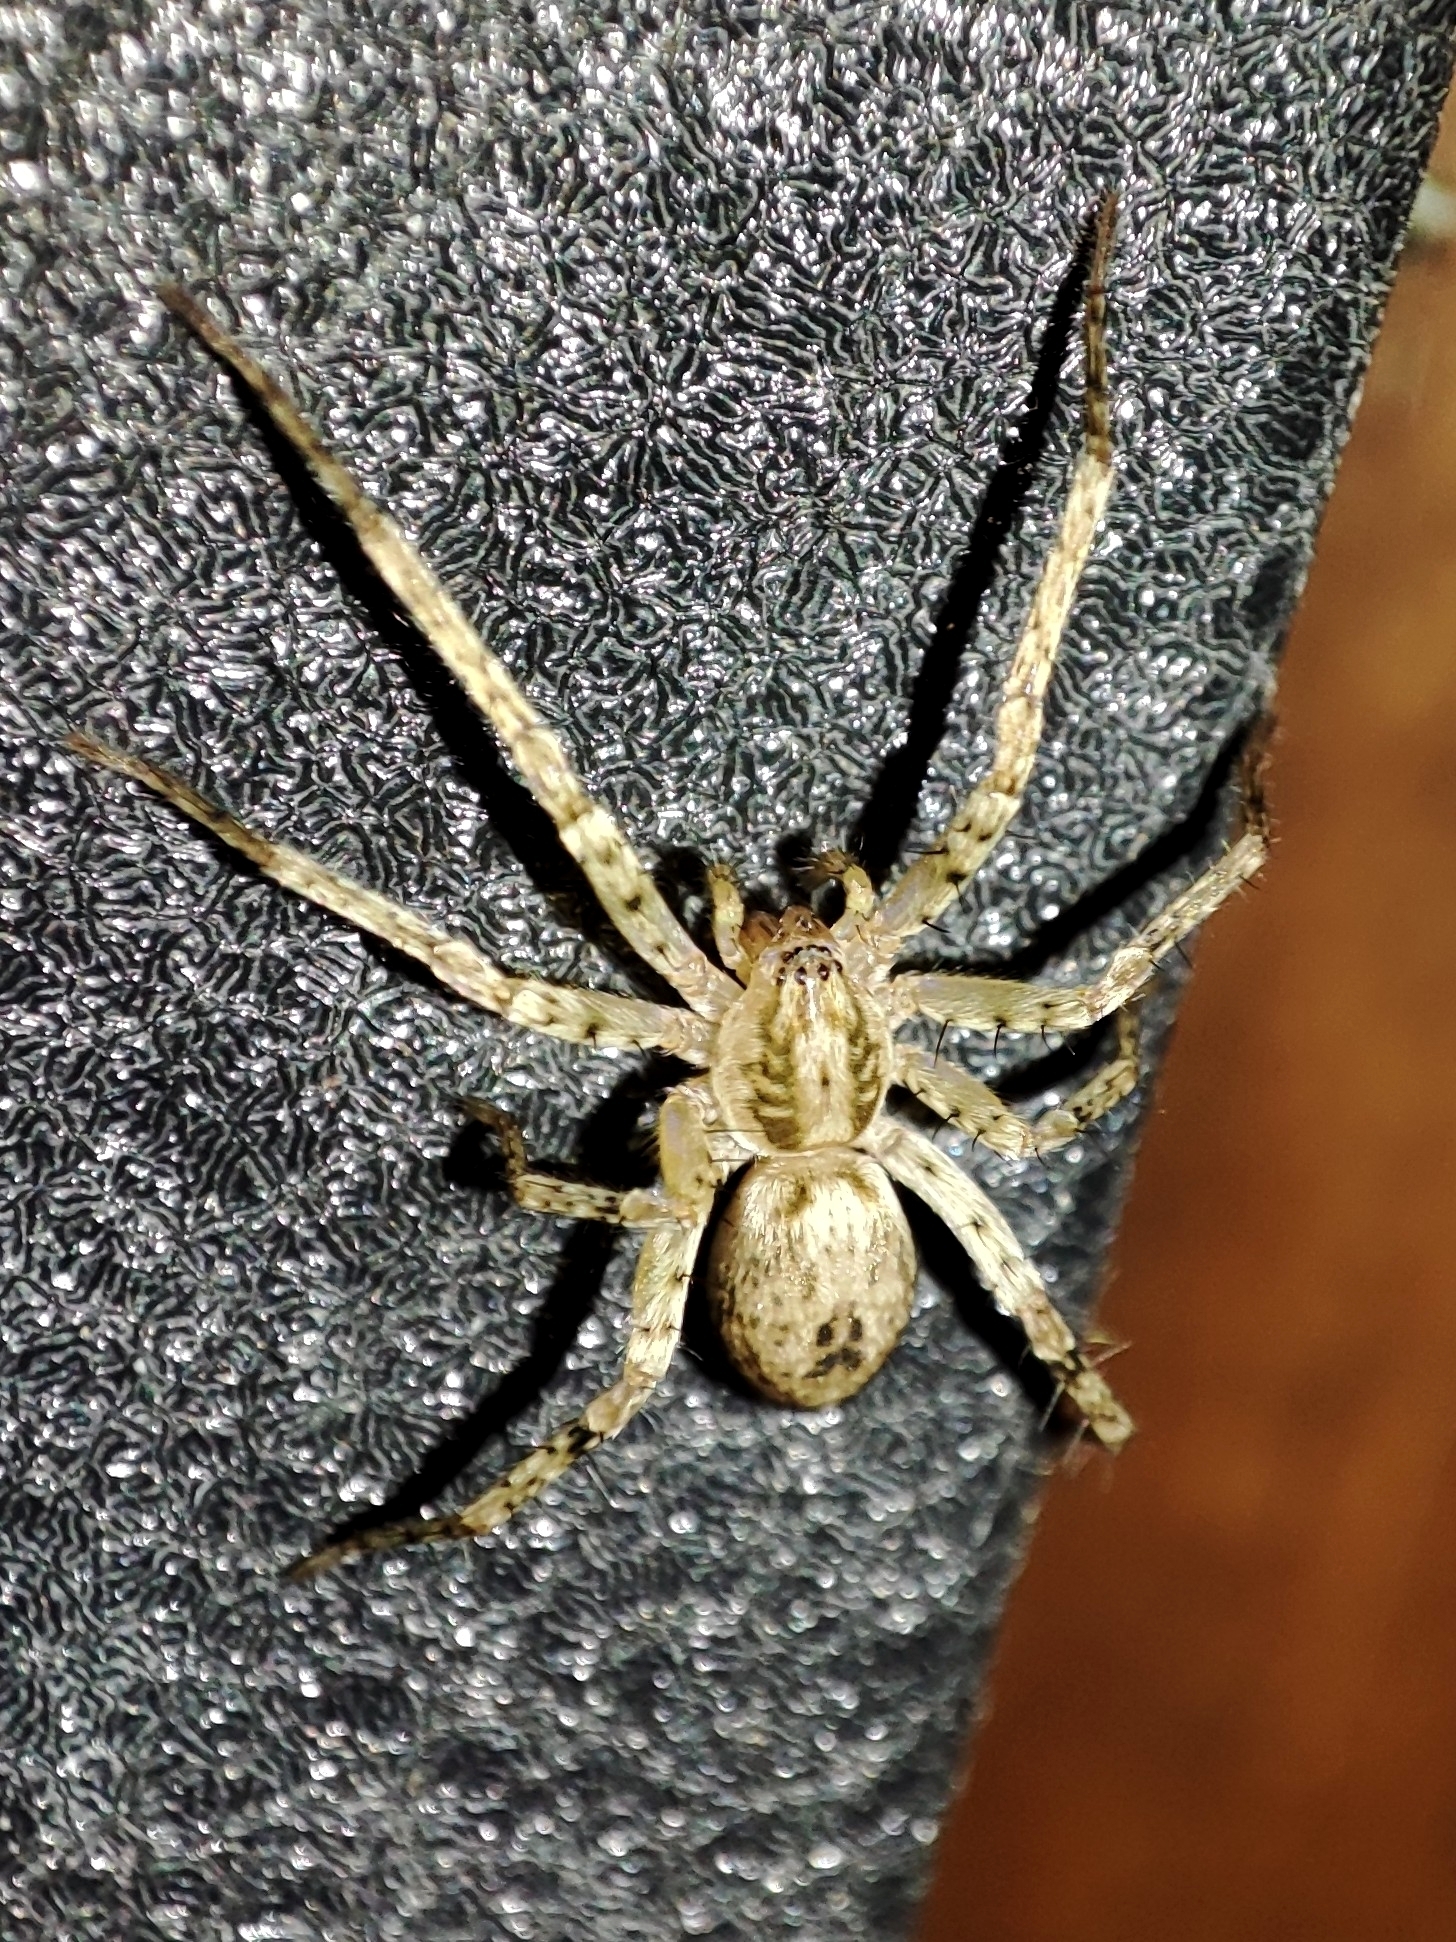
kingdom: Animalia
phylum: Arthropoda
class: Arachnida
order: Araneae
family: Anyphaenidae
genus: Anyphaena
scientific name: Anyphaena accentuata
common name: Buzzing spider
